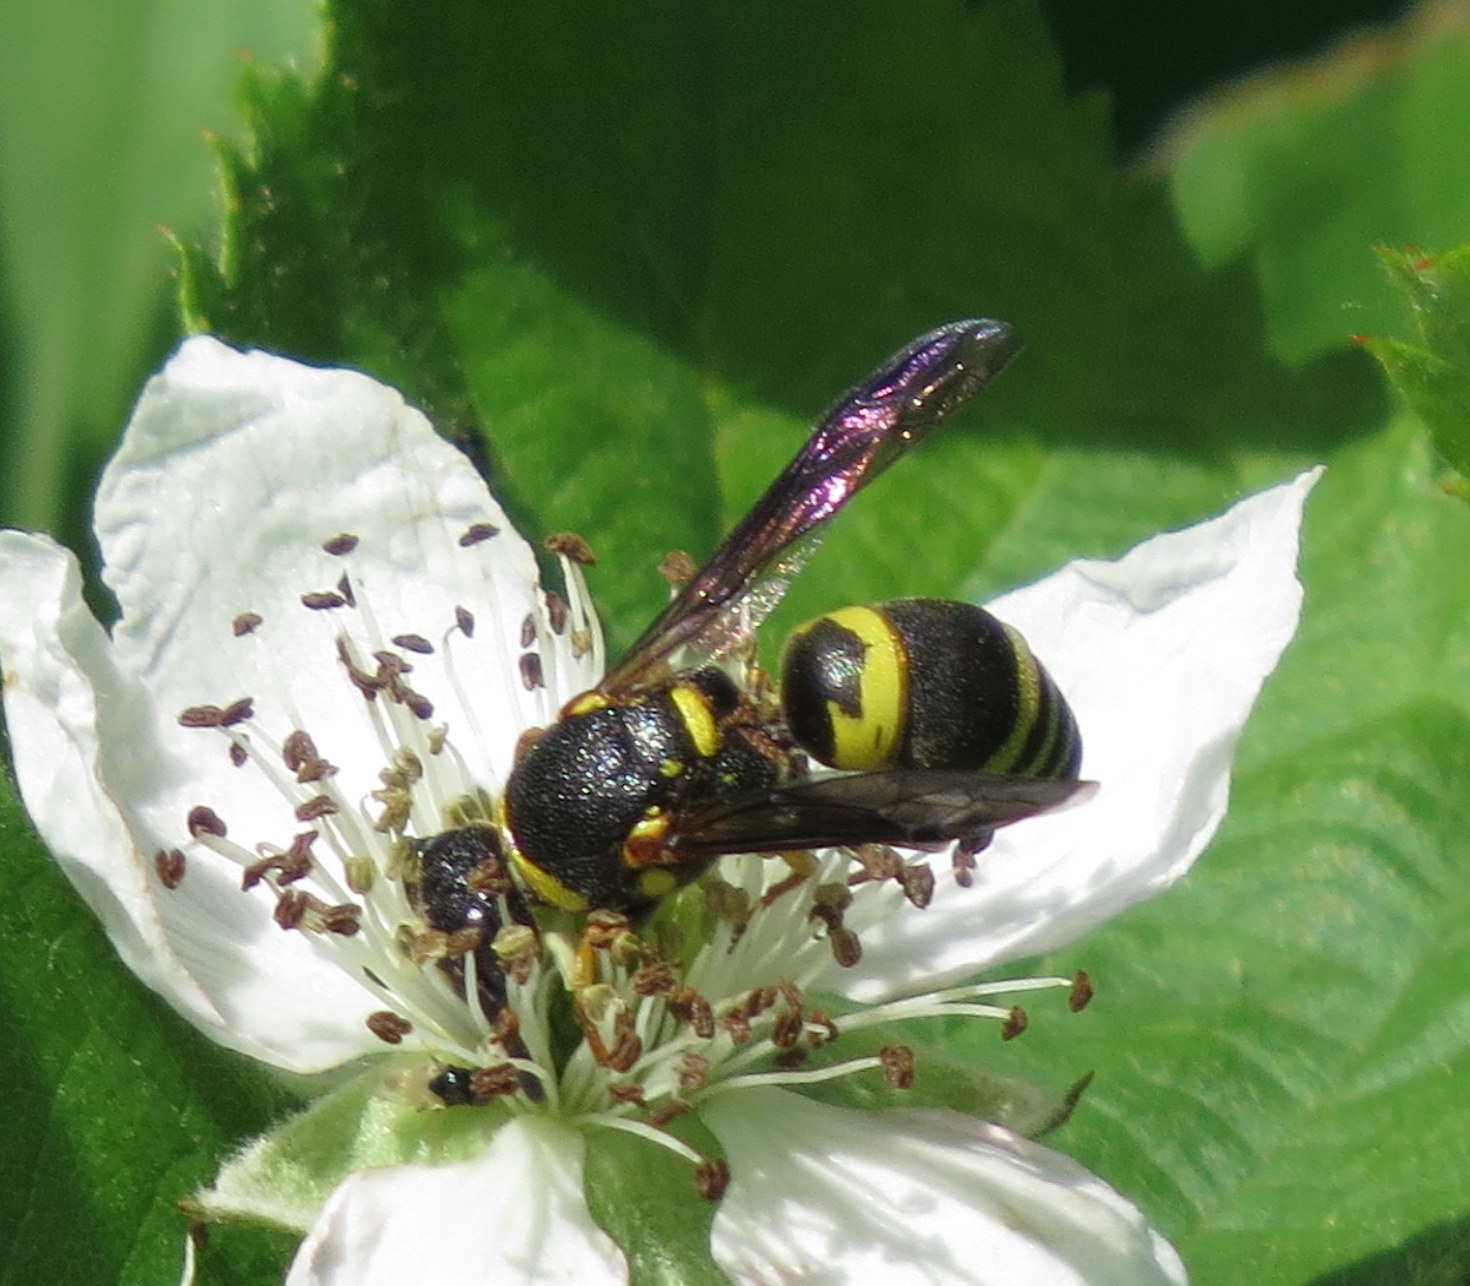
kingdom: Animalia
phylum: Arthropoda
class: Insecta
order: Hymenoptera
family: Eumenidae
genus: Euodynerus
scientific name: Euodynerus foraminatus
